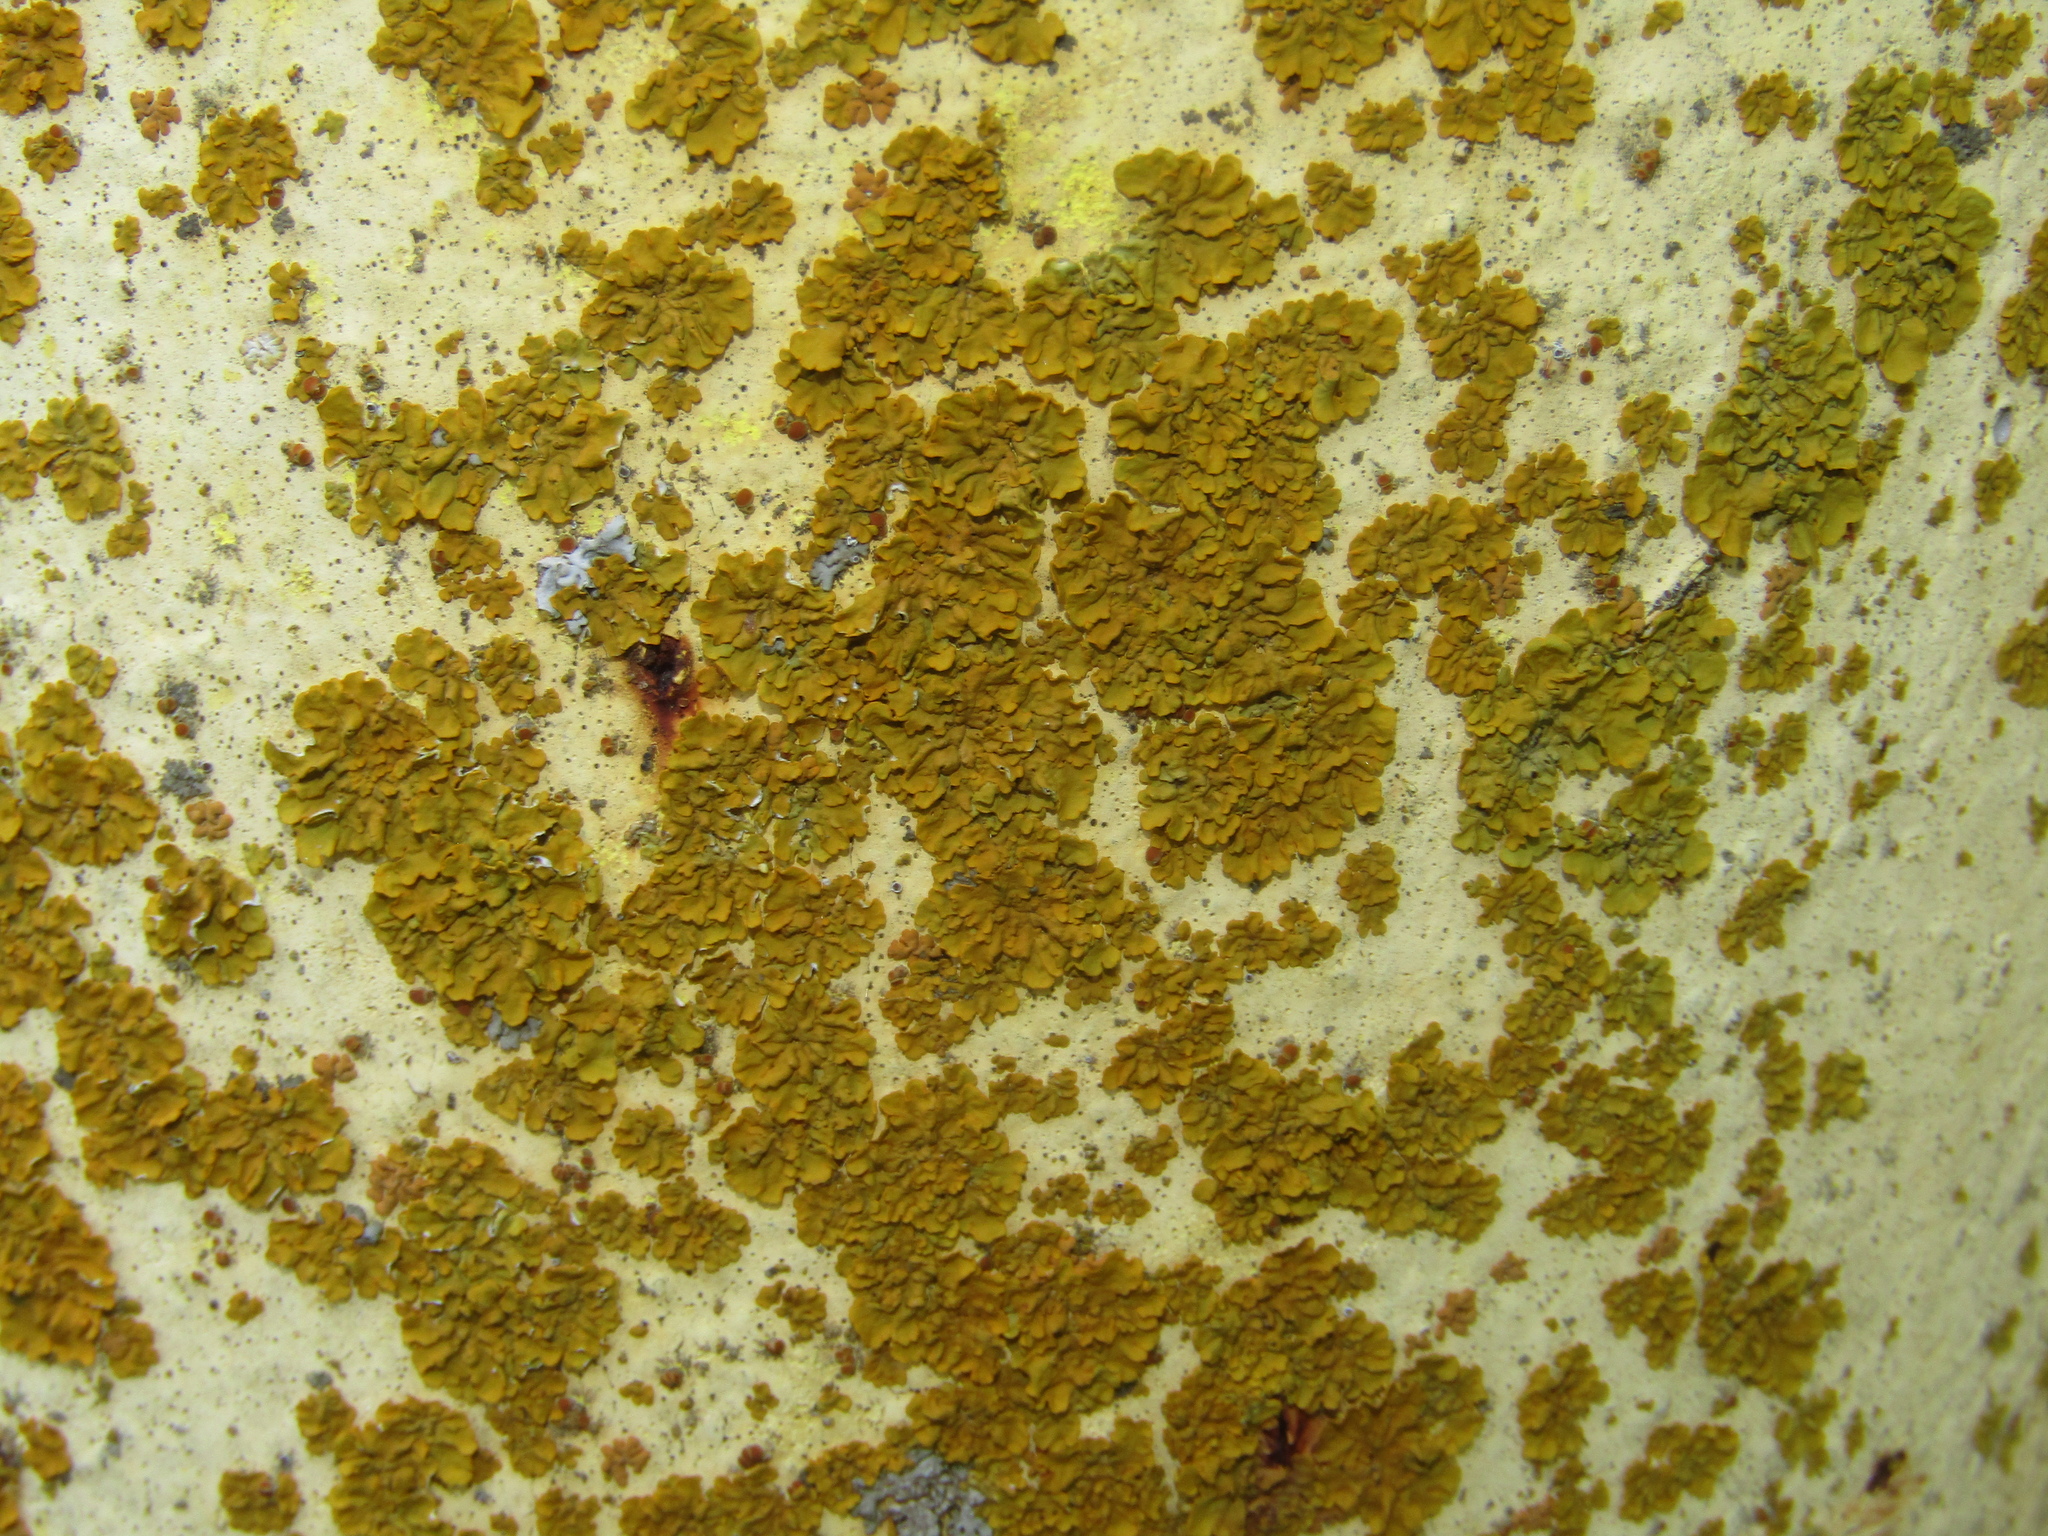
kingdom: Fungi
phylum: Ascomycota
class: Lecanoromycetes
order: Teloschistales
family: Teloschistaceae
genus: Xanthoria
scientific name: Xanthoria parietina
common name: Common orange lichen
